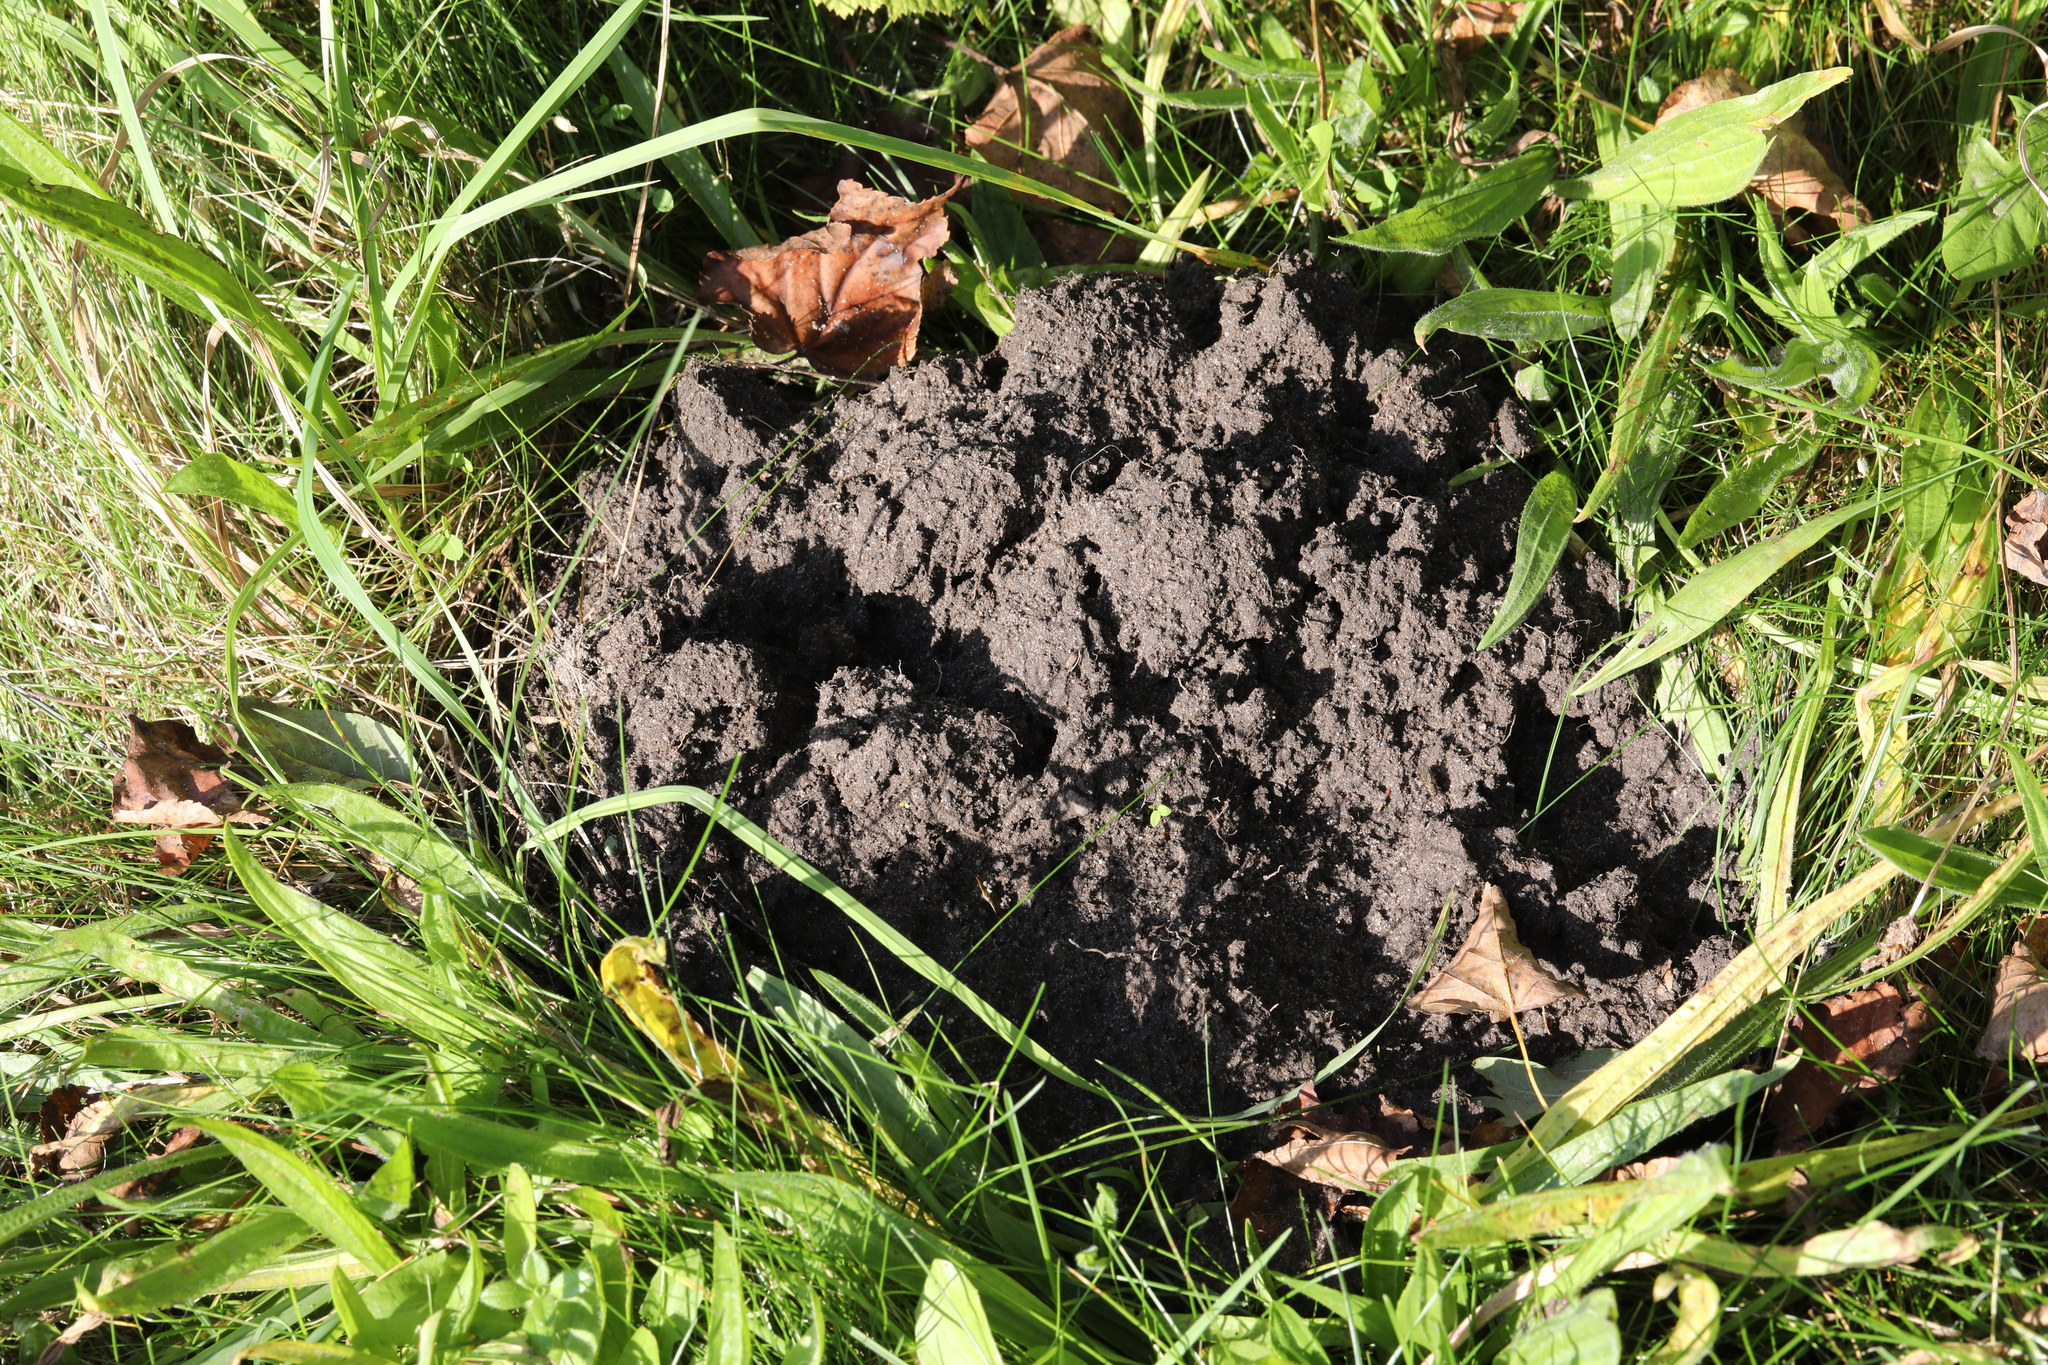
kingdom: Animalia
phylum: Chordata
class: Mammalia
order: Soricomorpha
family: Talpidae
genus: Talpa
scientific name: Talpa europaea
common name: European mole
